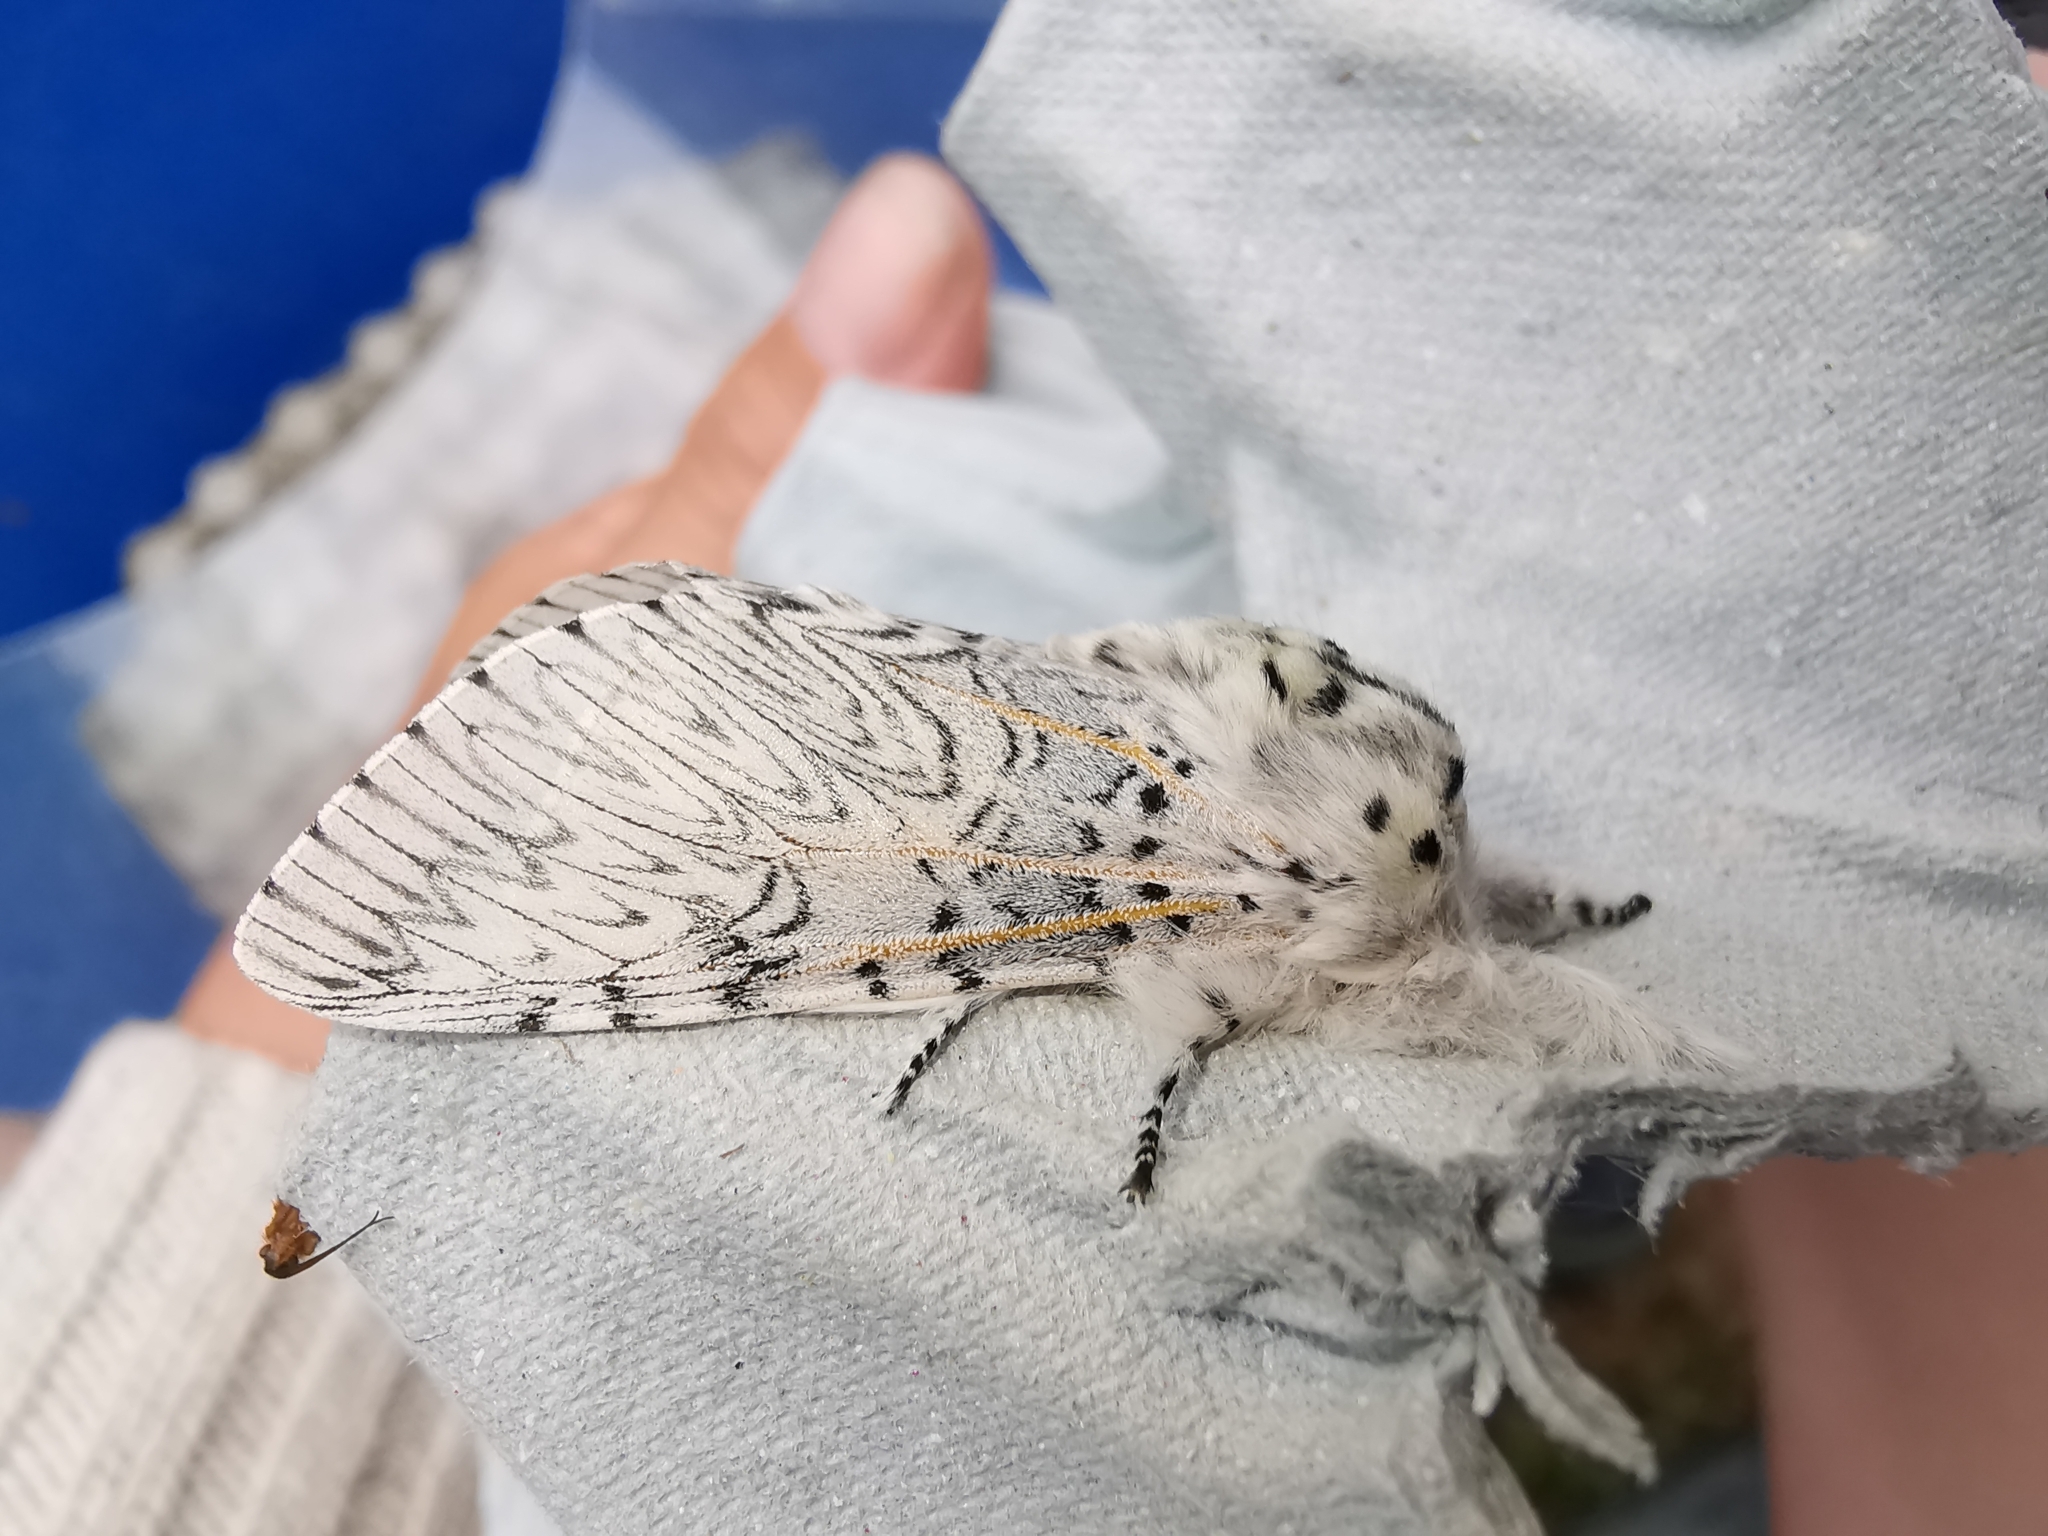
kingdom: Animalia
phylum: Arthropoda
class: Insecta
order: Lepidoptera
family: Notodontidae
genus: Cerura
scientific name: Cerura vinula
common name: Puss moth
